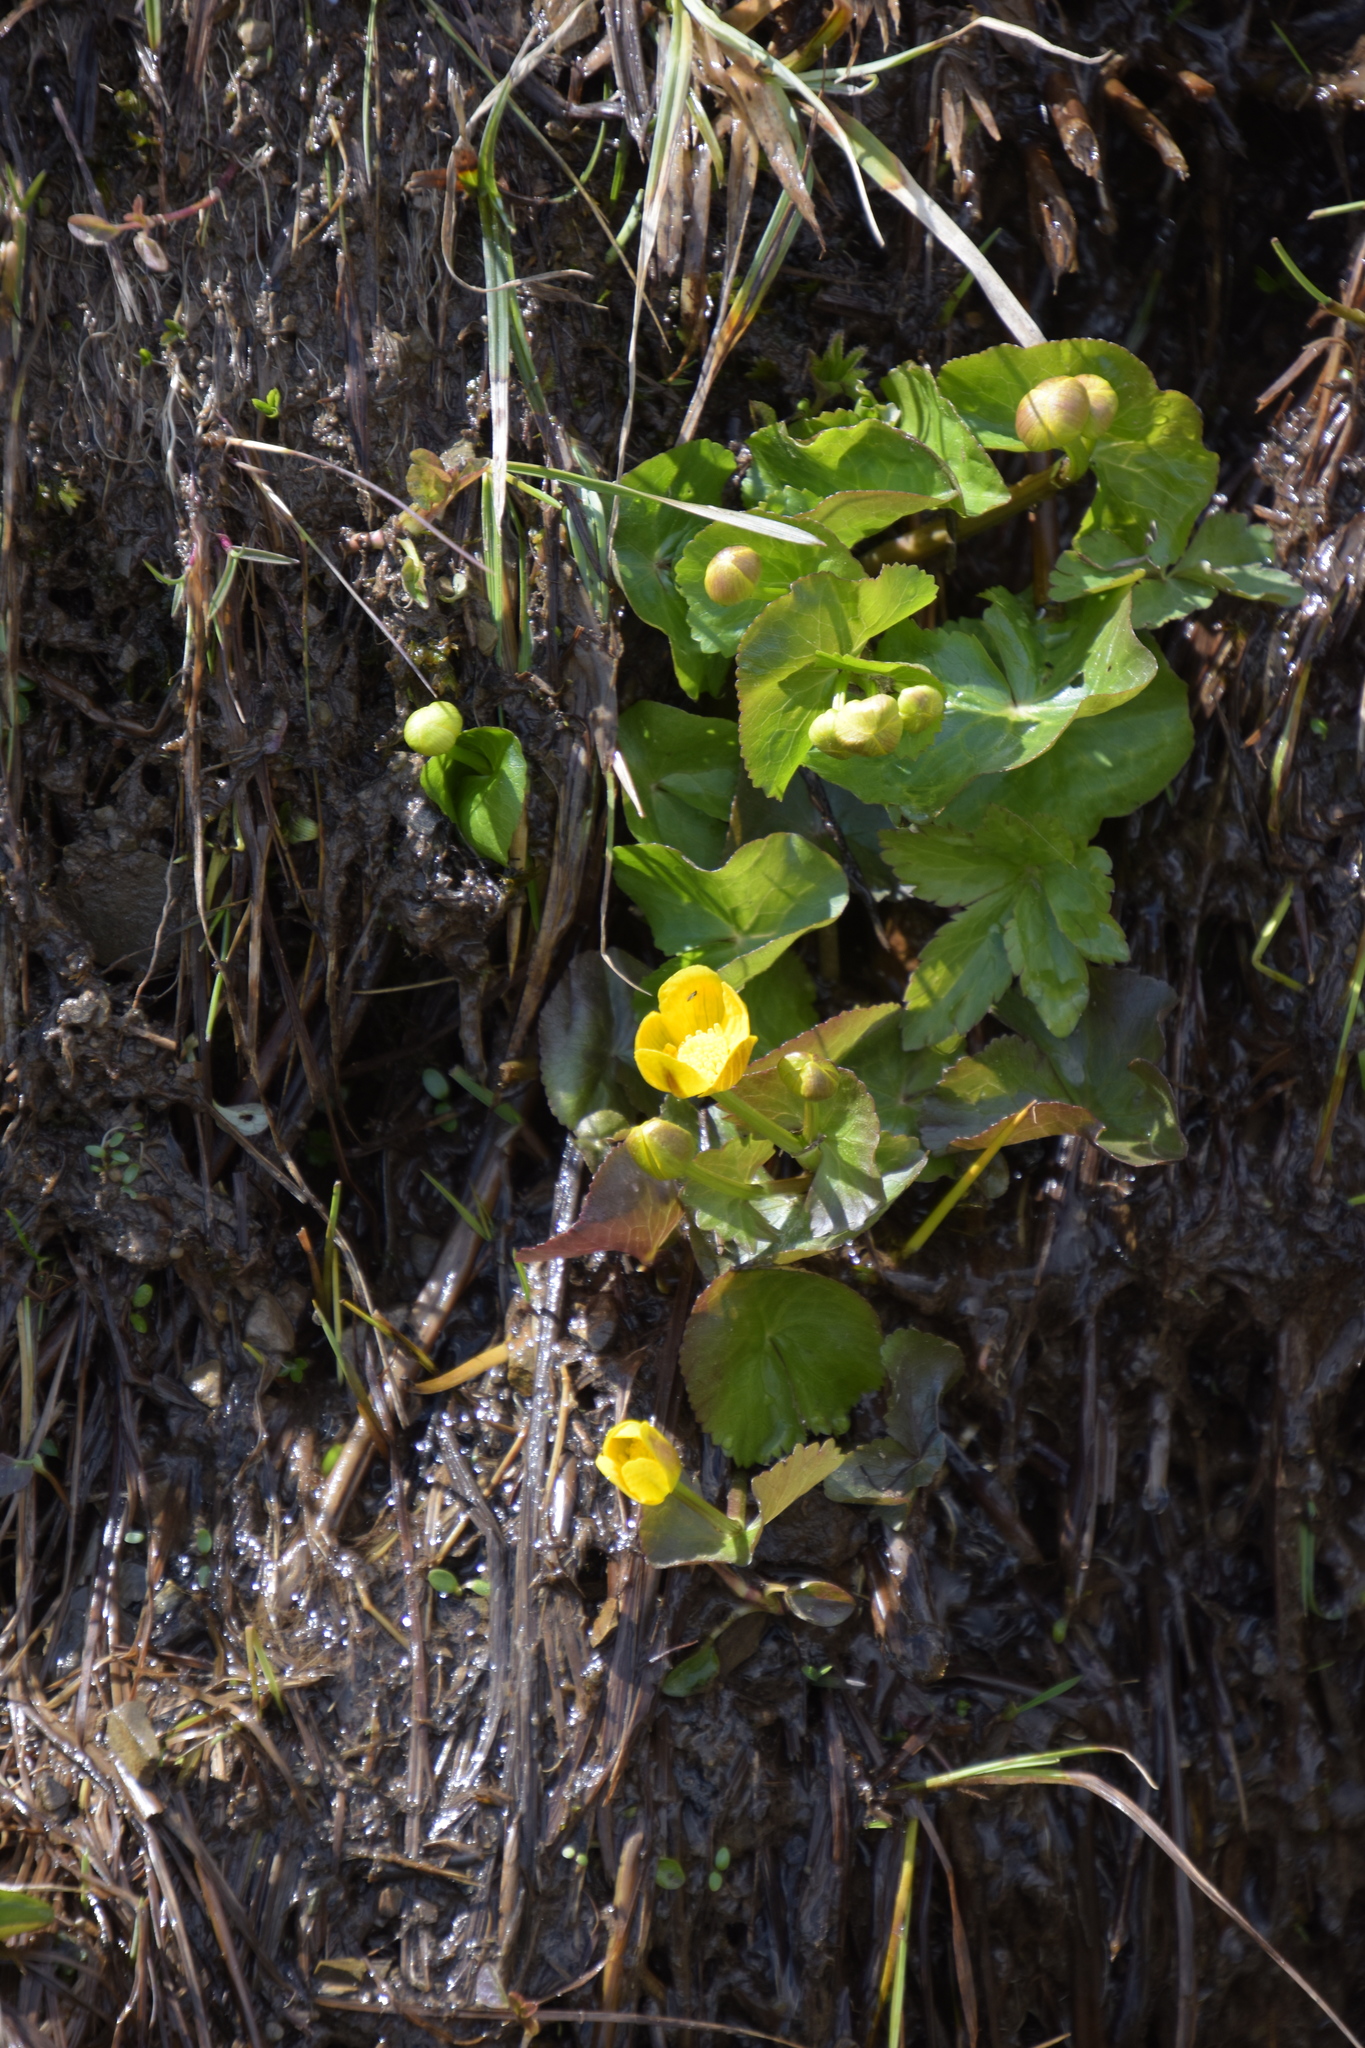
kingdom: Plantae
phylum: Tracheophyta
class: Magnoliopsida
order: Ranunculales
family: Ranunculaceae
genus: Caltha
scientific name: Caltha palustris
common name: Marsh marigold
